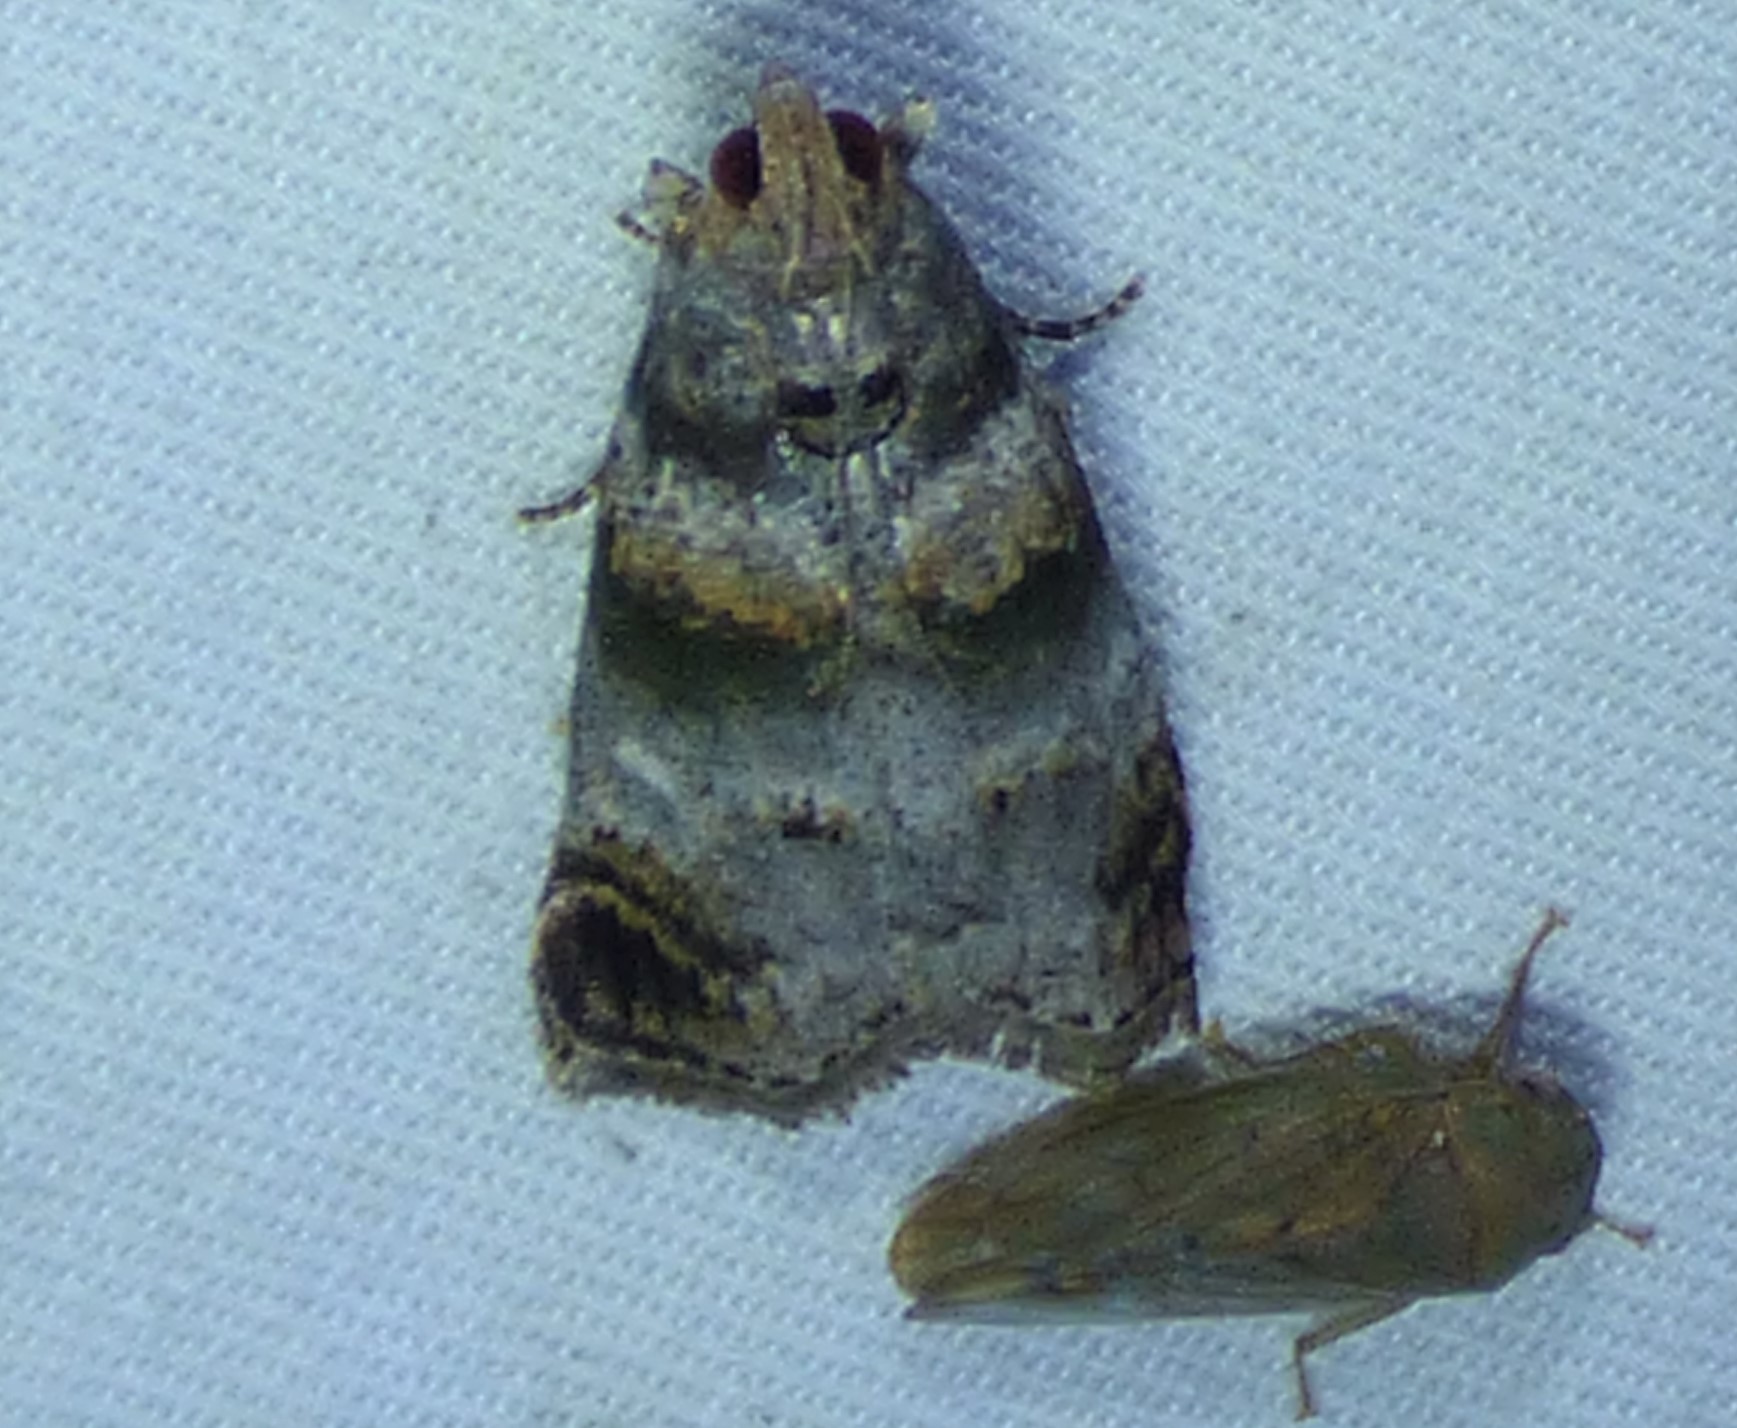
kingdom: Animalia
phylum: Arthropoda
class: Insecta
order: Lepidoptera
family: Pyralidae
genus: Oneida
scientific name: Oneida lunulalis
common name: Orange-tufted oneida moth
